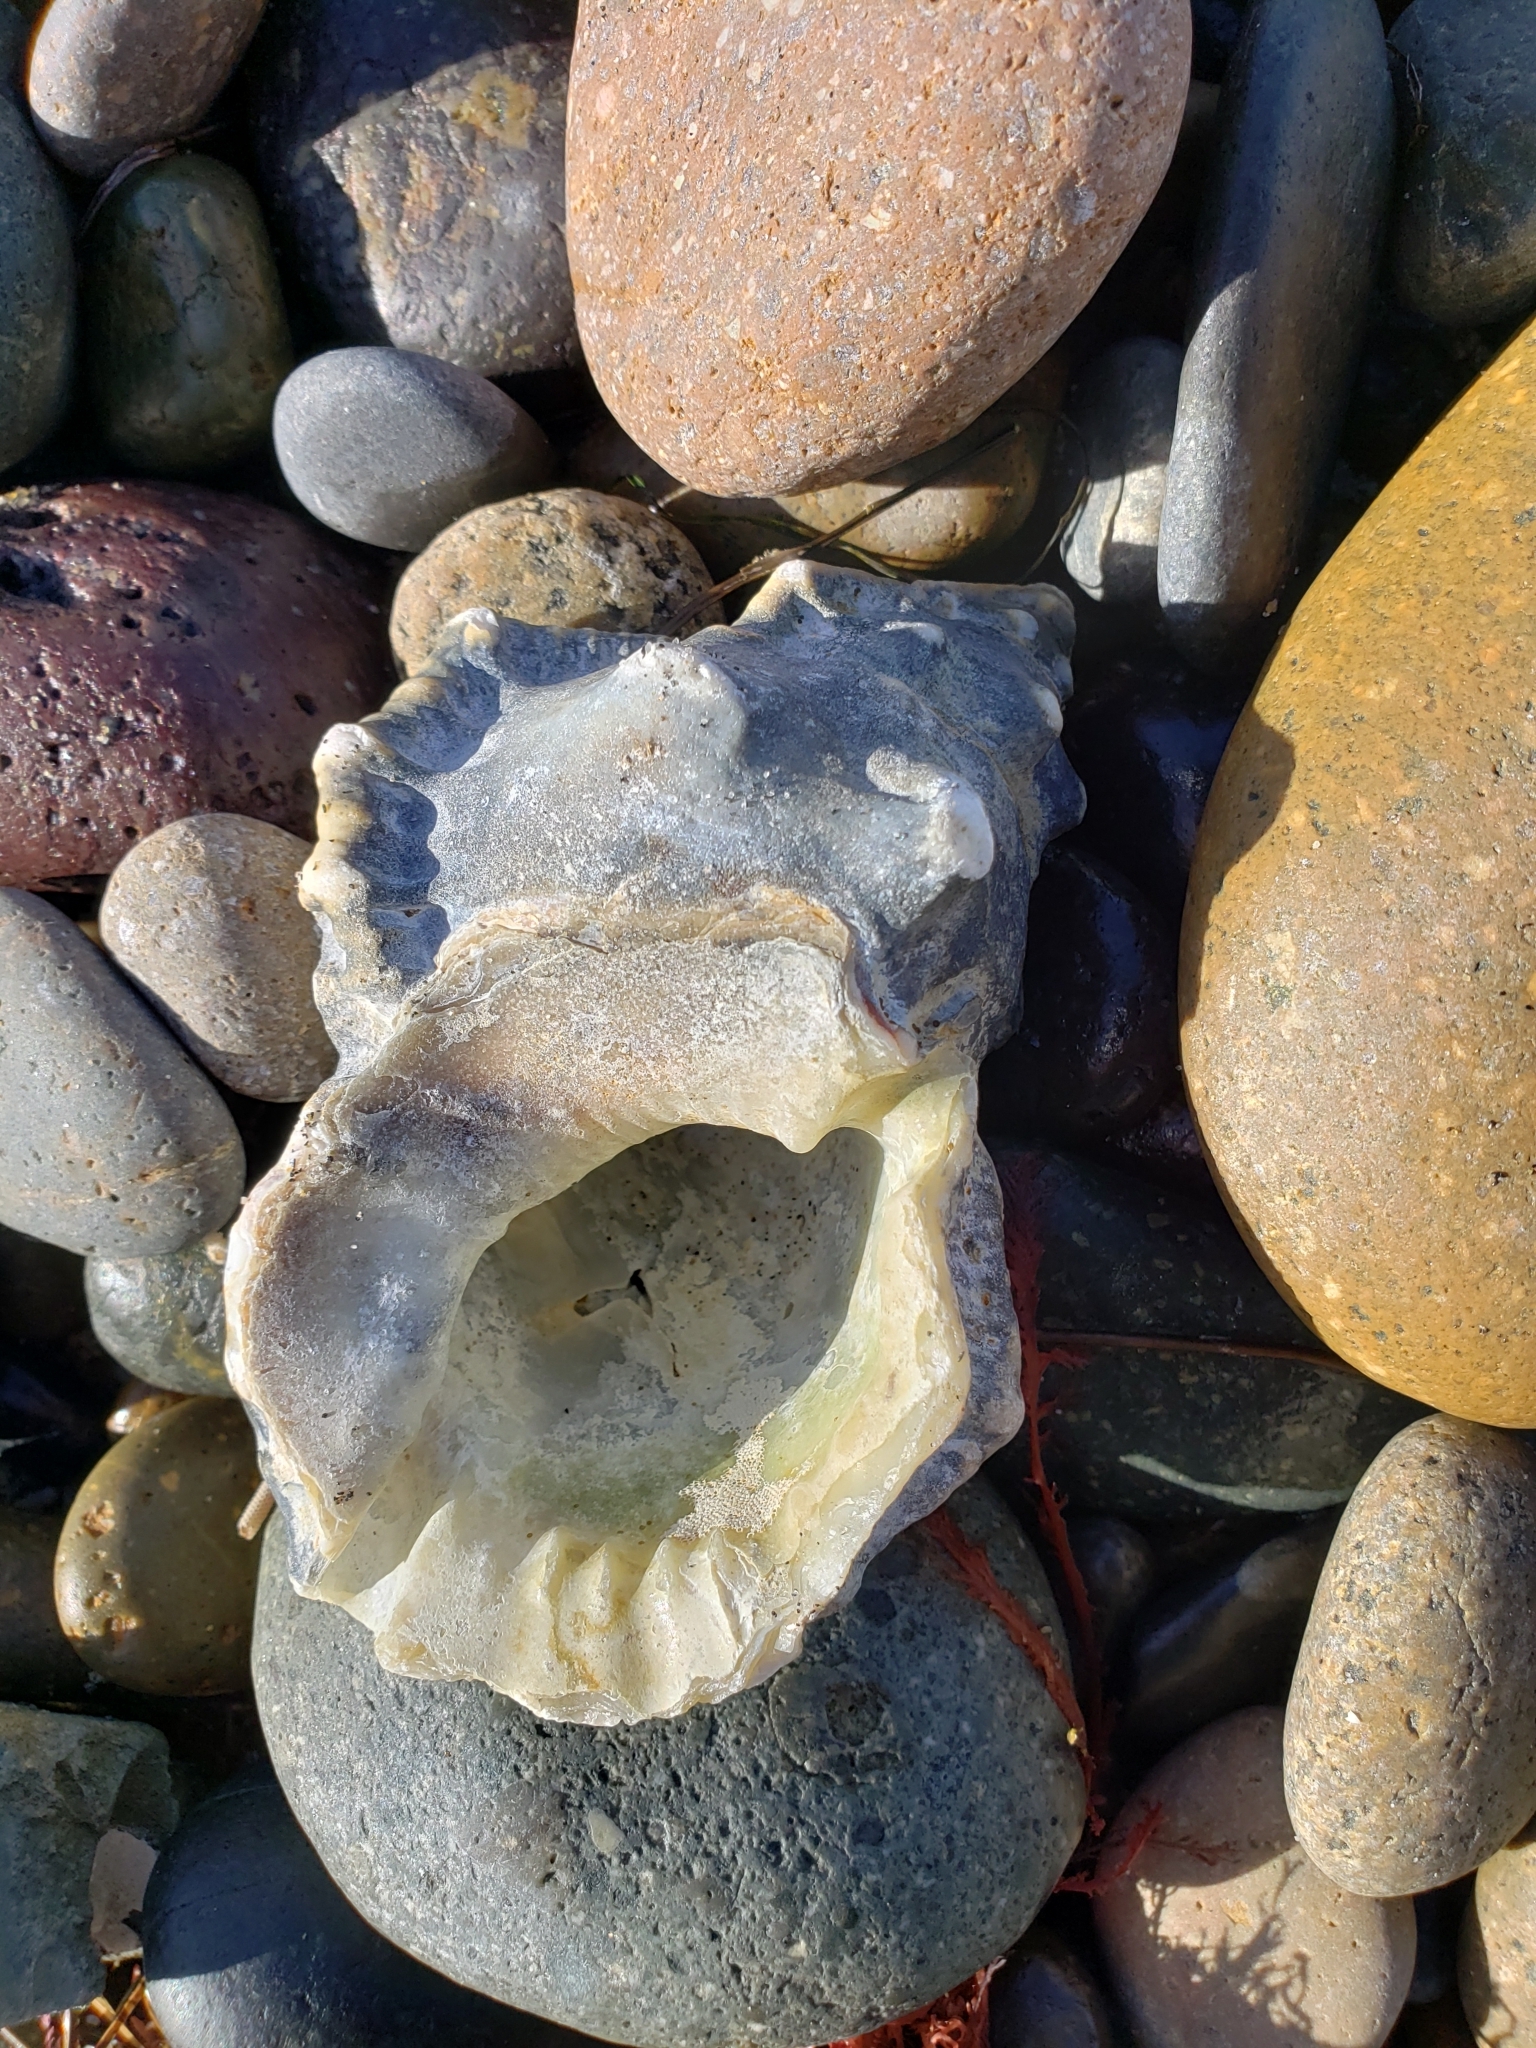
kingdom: Animalia
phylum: Mollusca
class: Gastropoda
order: Littorinimorpha
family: Bursidae
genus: Crossata
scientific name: Crossata californica
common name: California frogsnail
